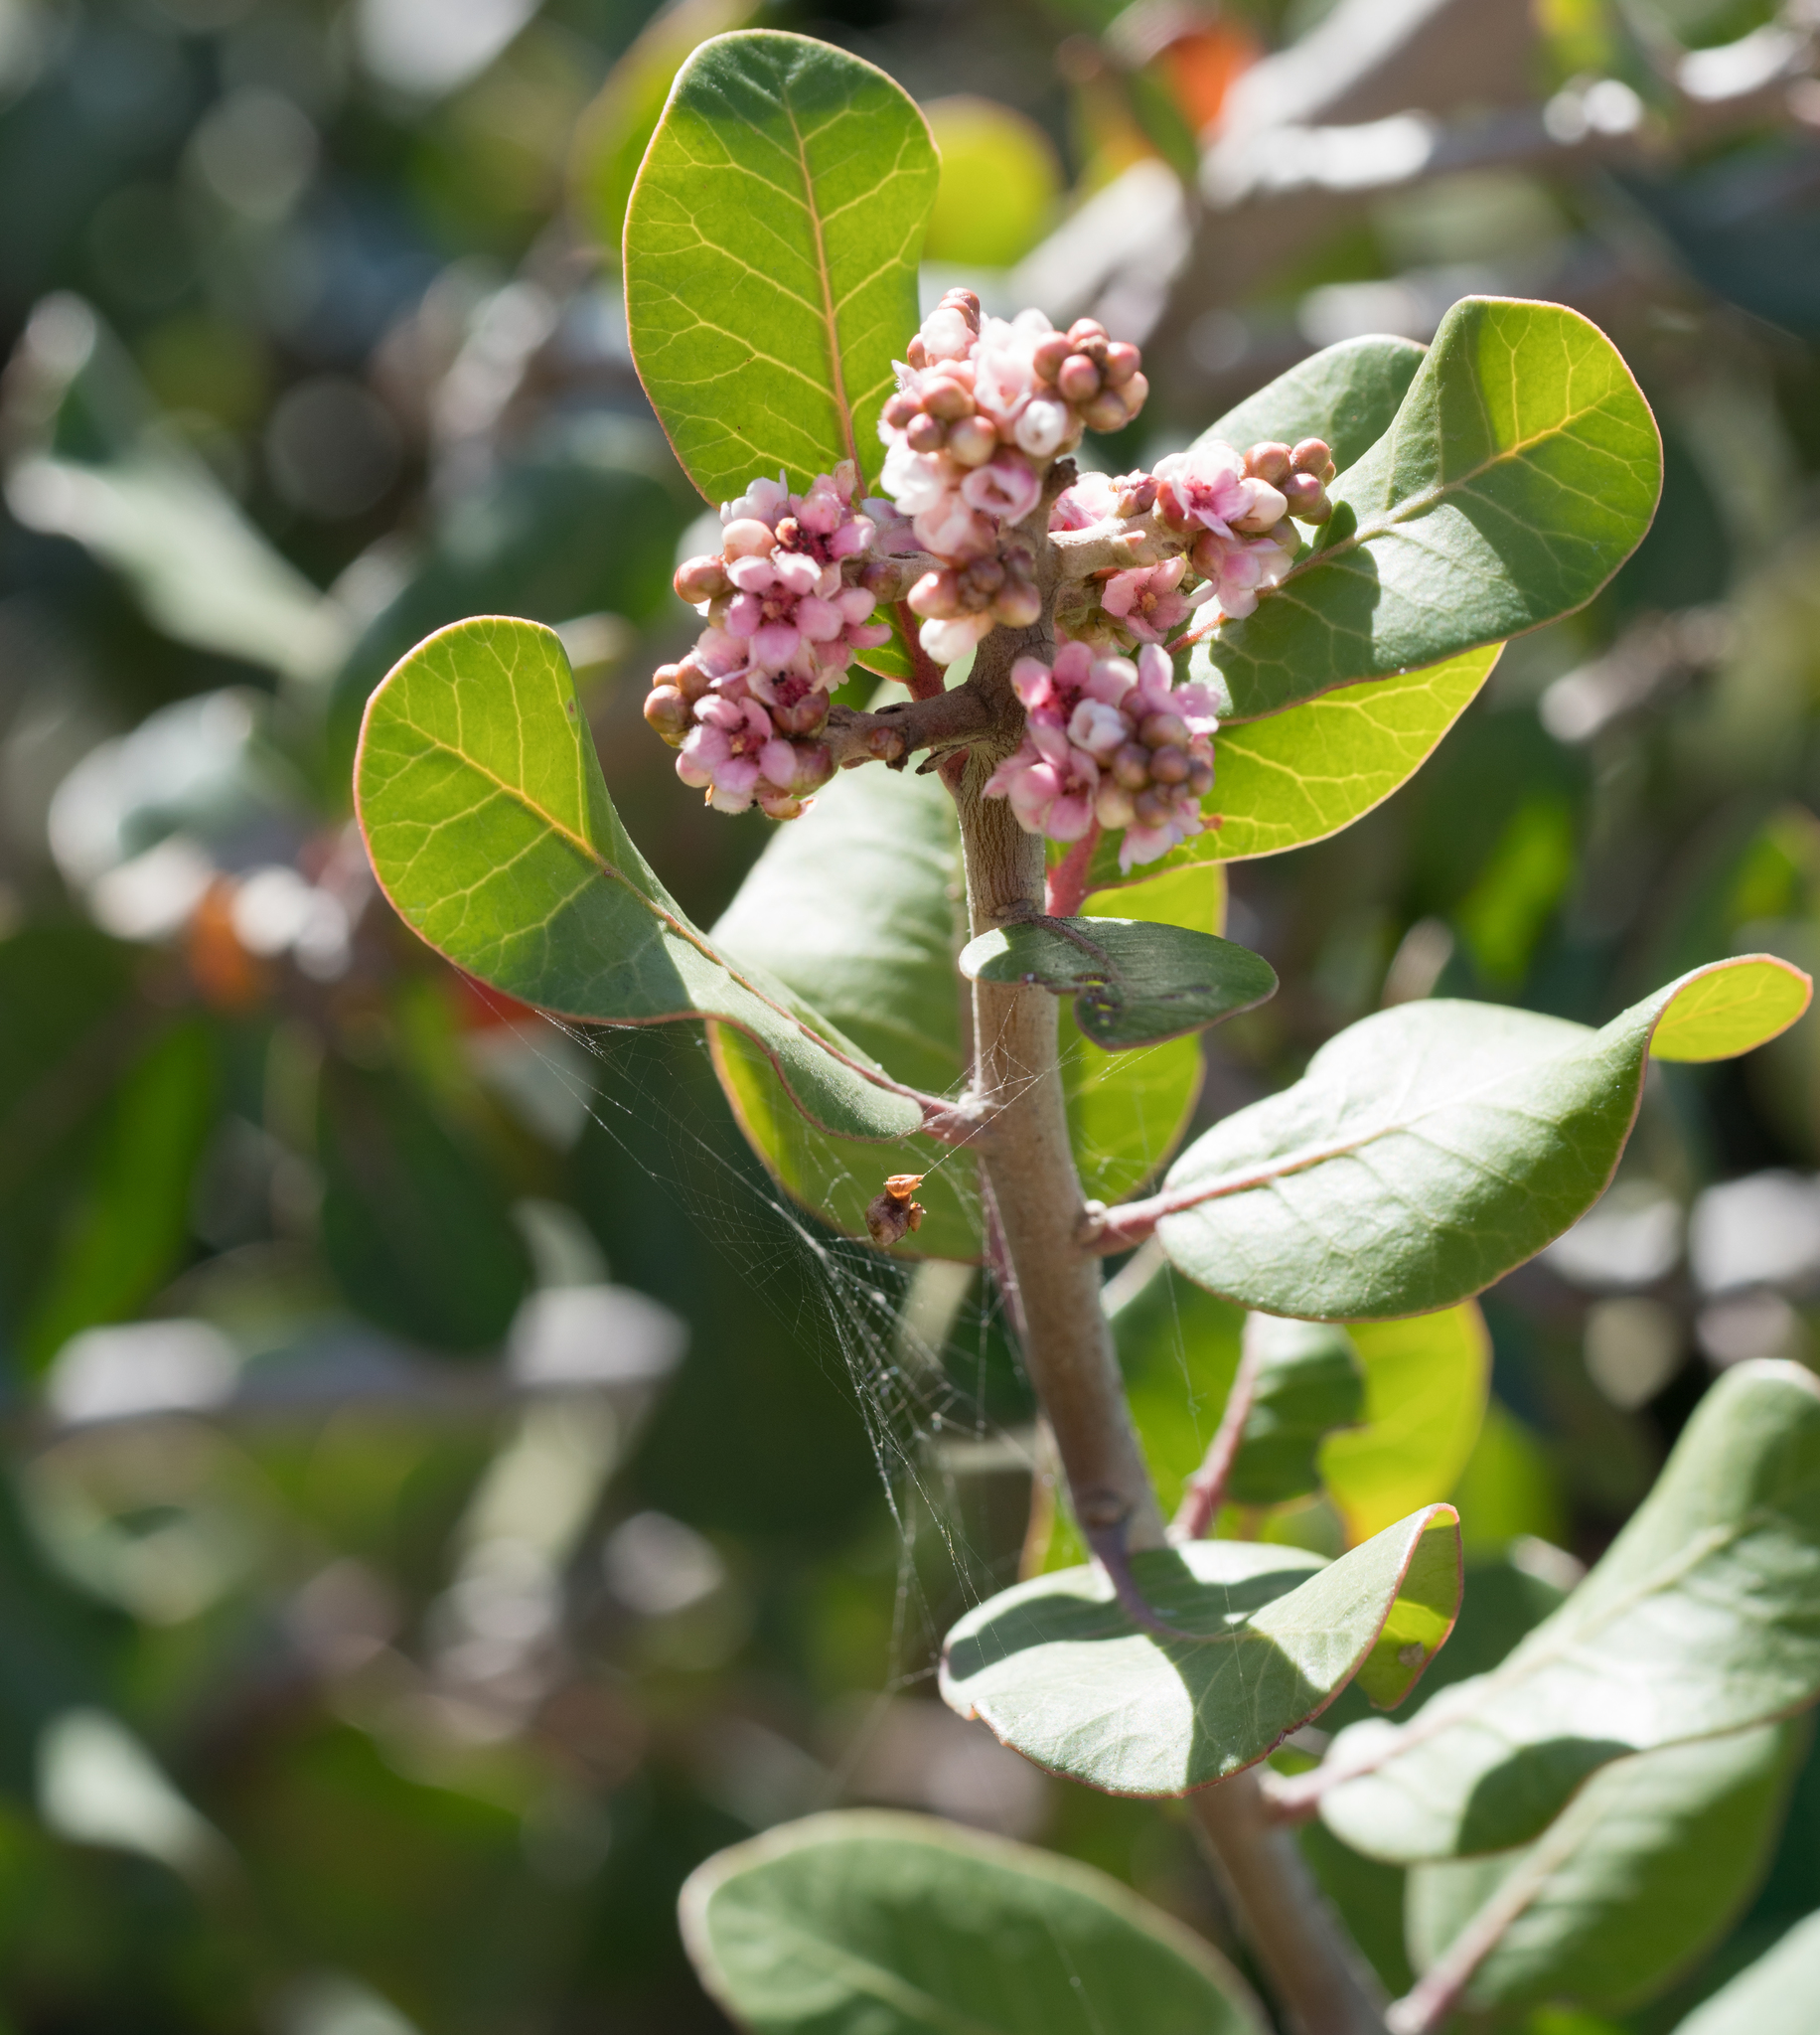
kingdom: Plantae
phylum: Tracheophyta
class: Magnoliopsida
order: Sapindales
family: Anacardiaceae
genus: Rhus
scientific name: Rhus integrifolia
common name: Lemonade sumac
